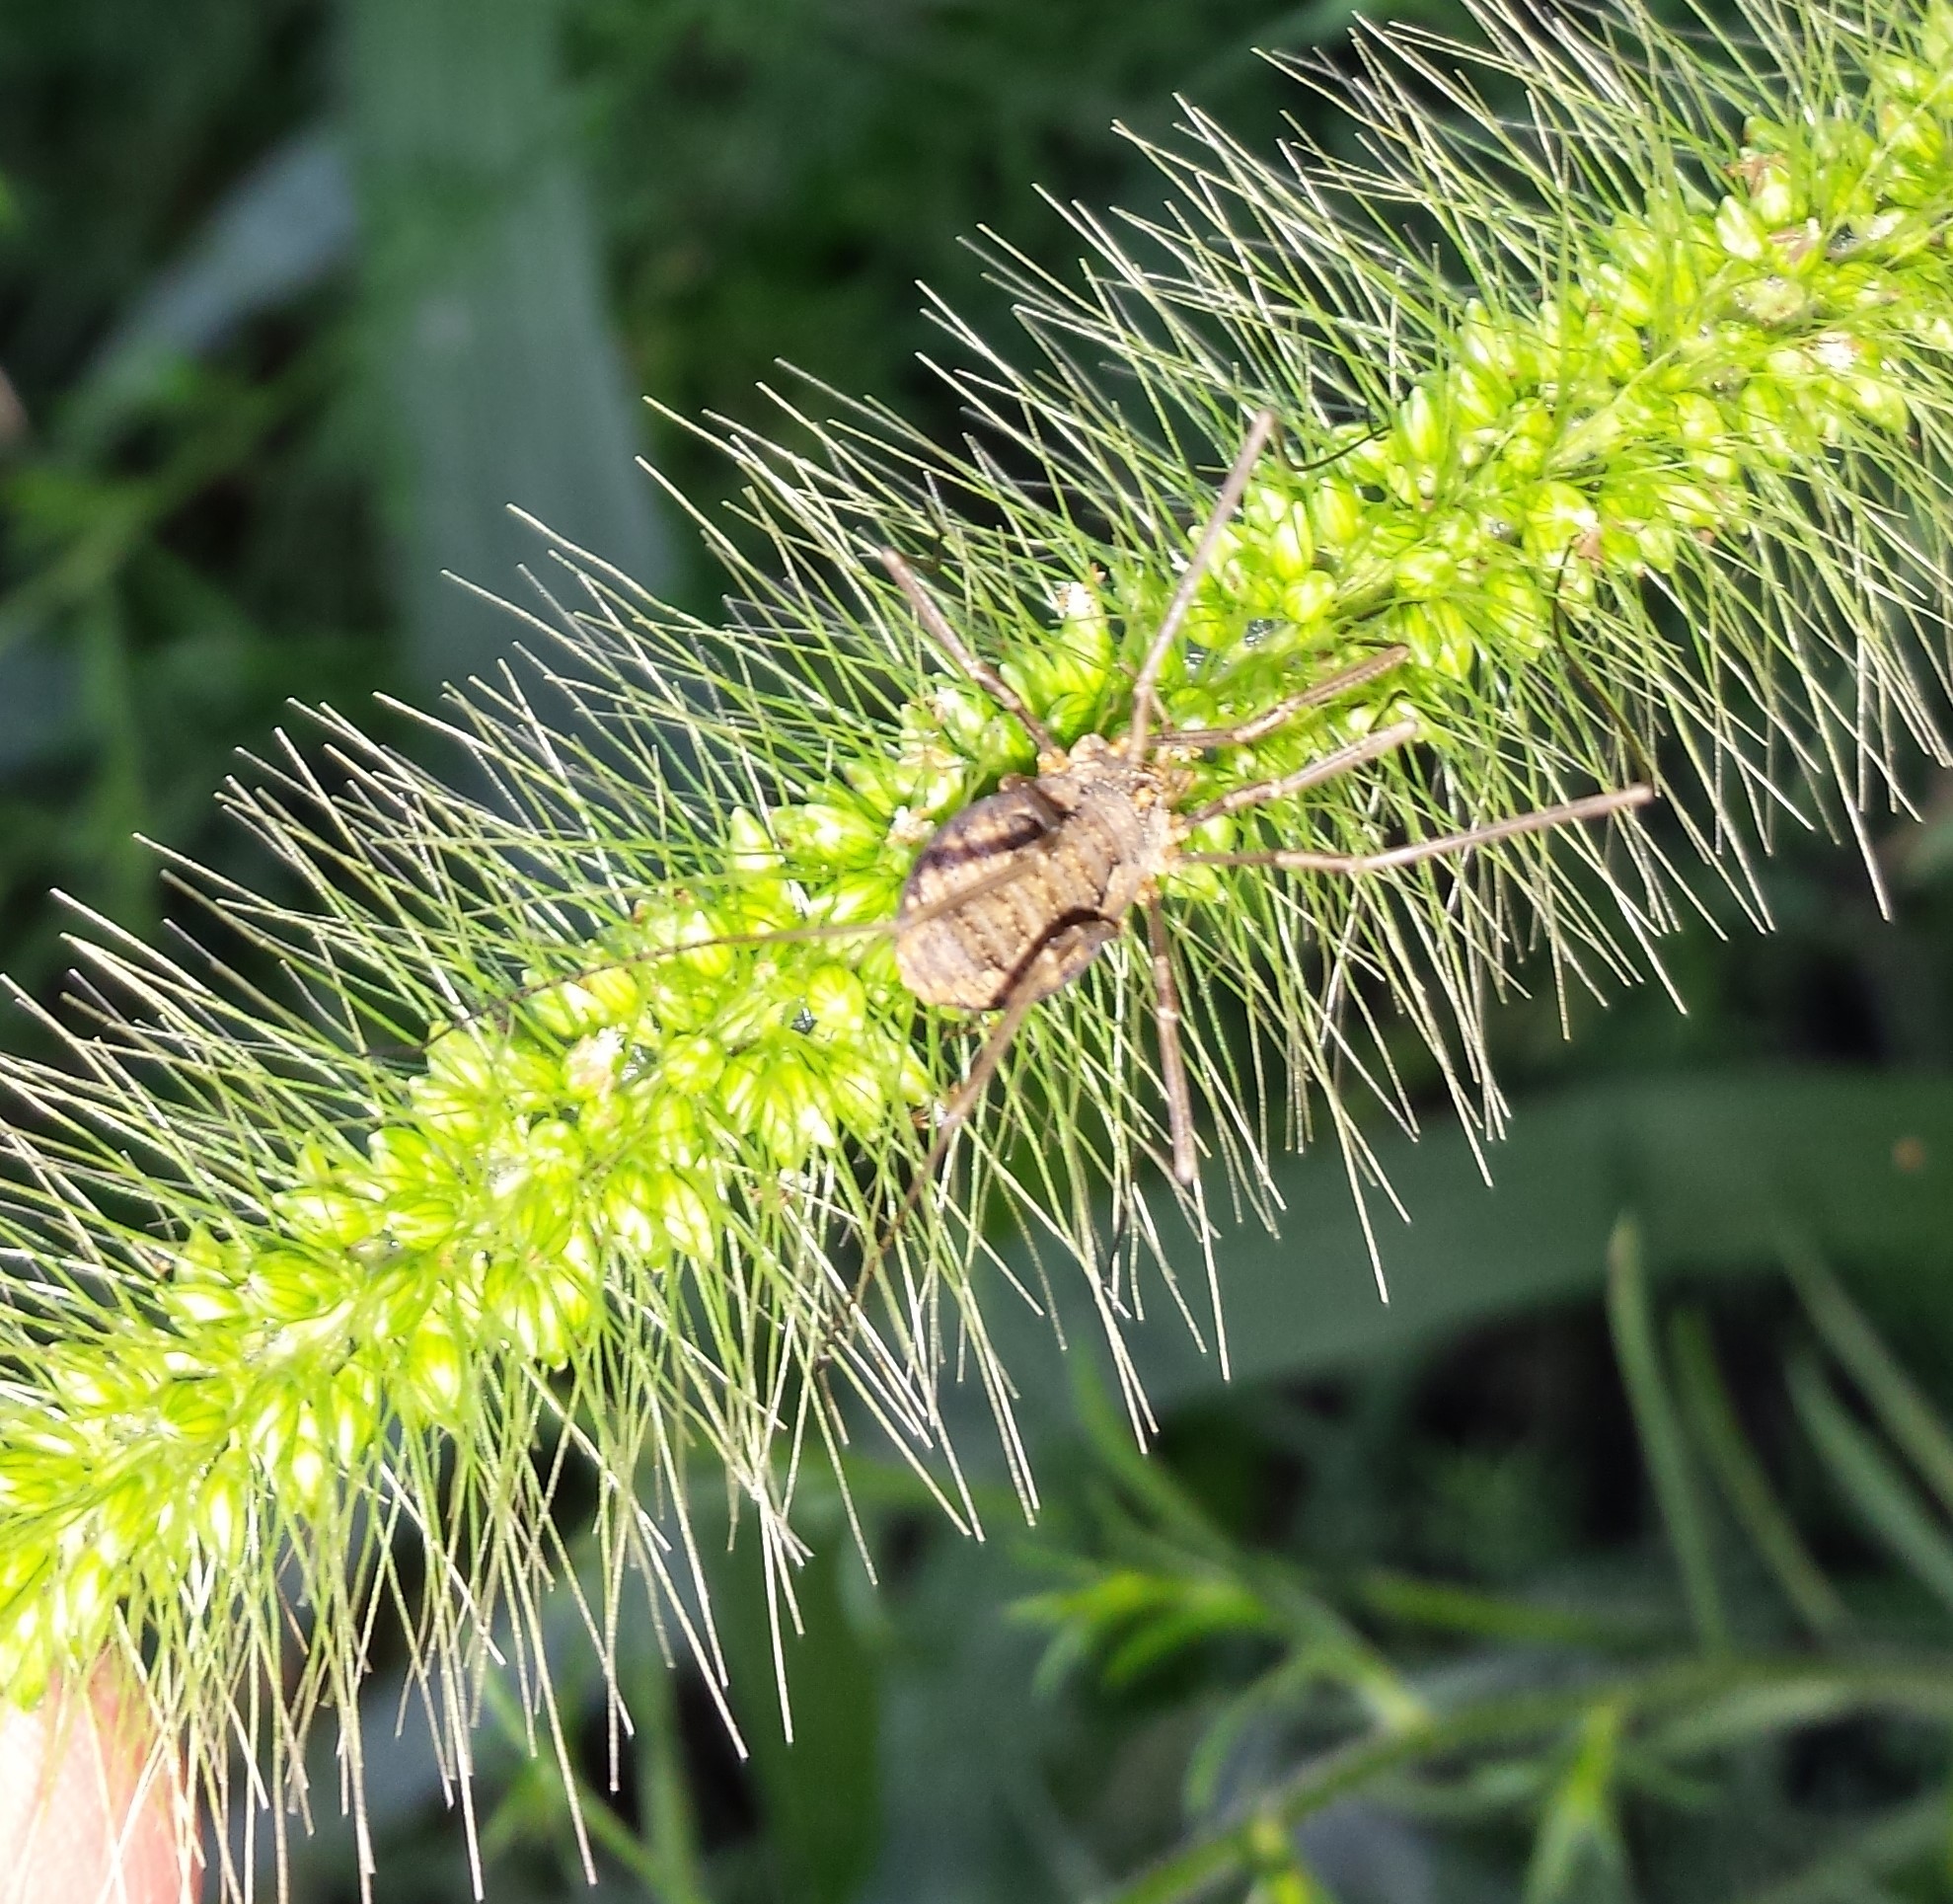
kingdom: Animalia
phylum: Arthropoda
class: Arachnida
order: Opiliones
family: Phalangiidae
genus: Phalangium
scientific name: Phalangium opilio
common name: Daddy longleg
